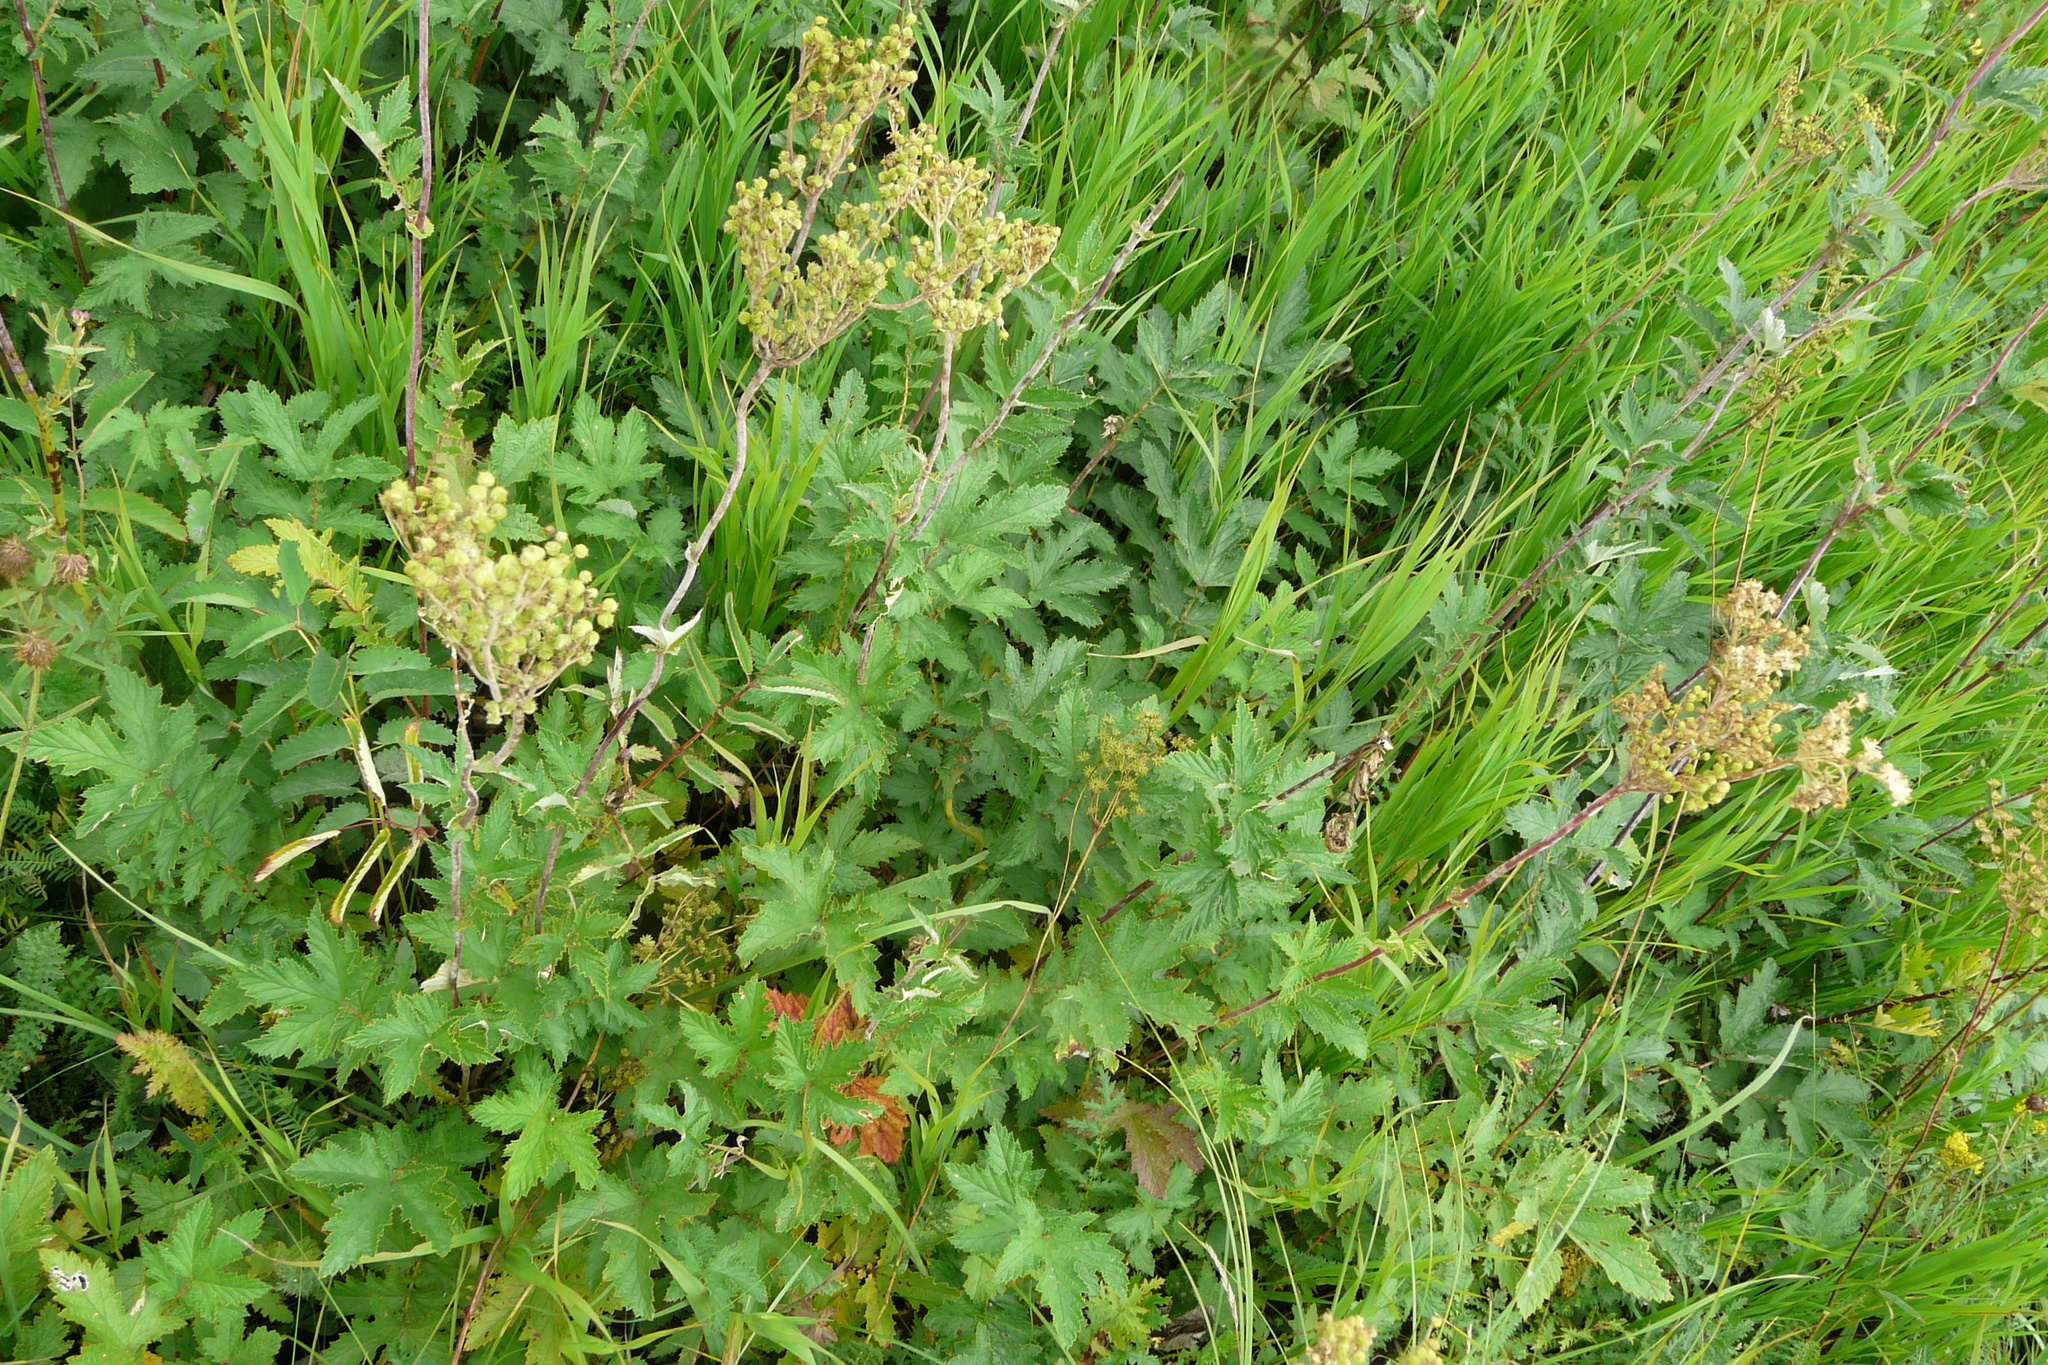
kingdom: Plantae
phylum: Tracheophyta
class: Magnoliopsida
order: Rosales
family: Rosaceae
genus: Filipendula
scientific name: Filipendula ulmaria
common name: Meadowsweet
